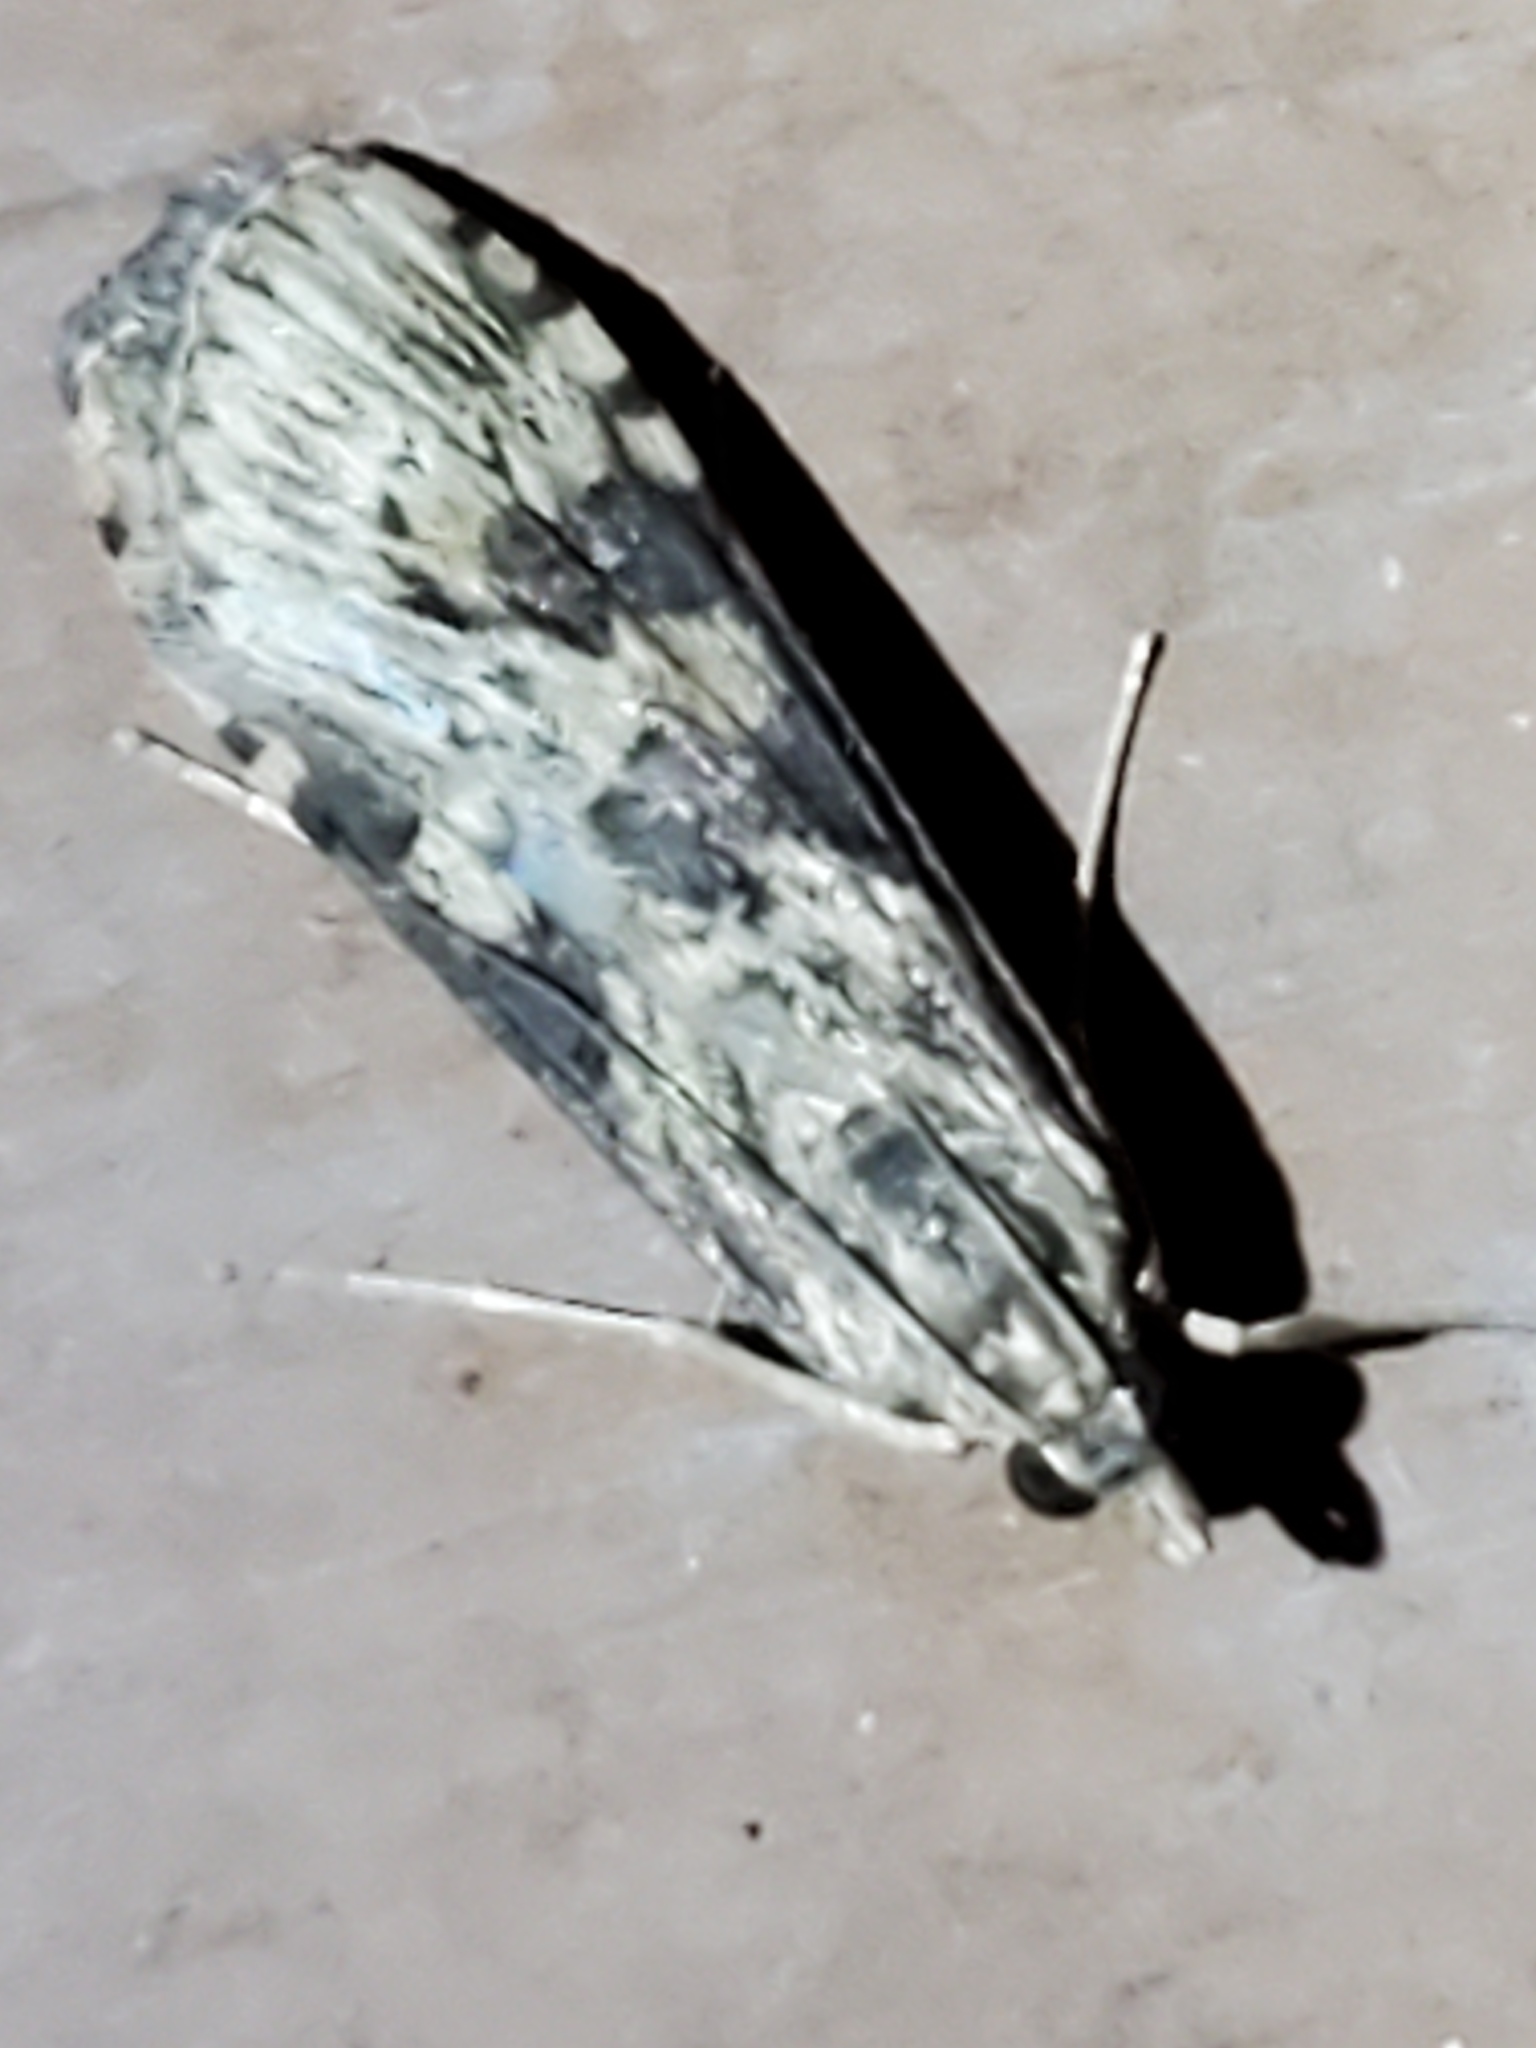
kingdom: Animalia
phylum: Arthropoda
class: Insecta
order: Lepidoptera
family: Crambidae
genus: Nomophila
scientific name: Nomophila nearctica
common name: American rush veneer
